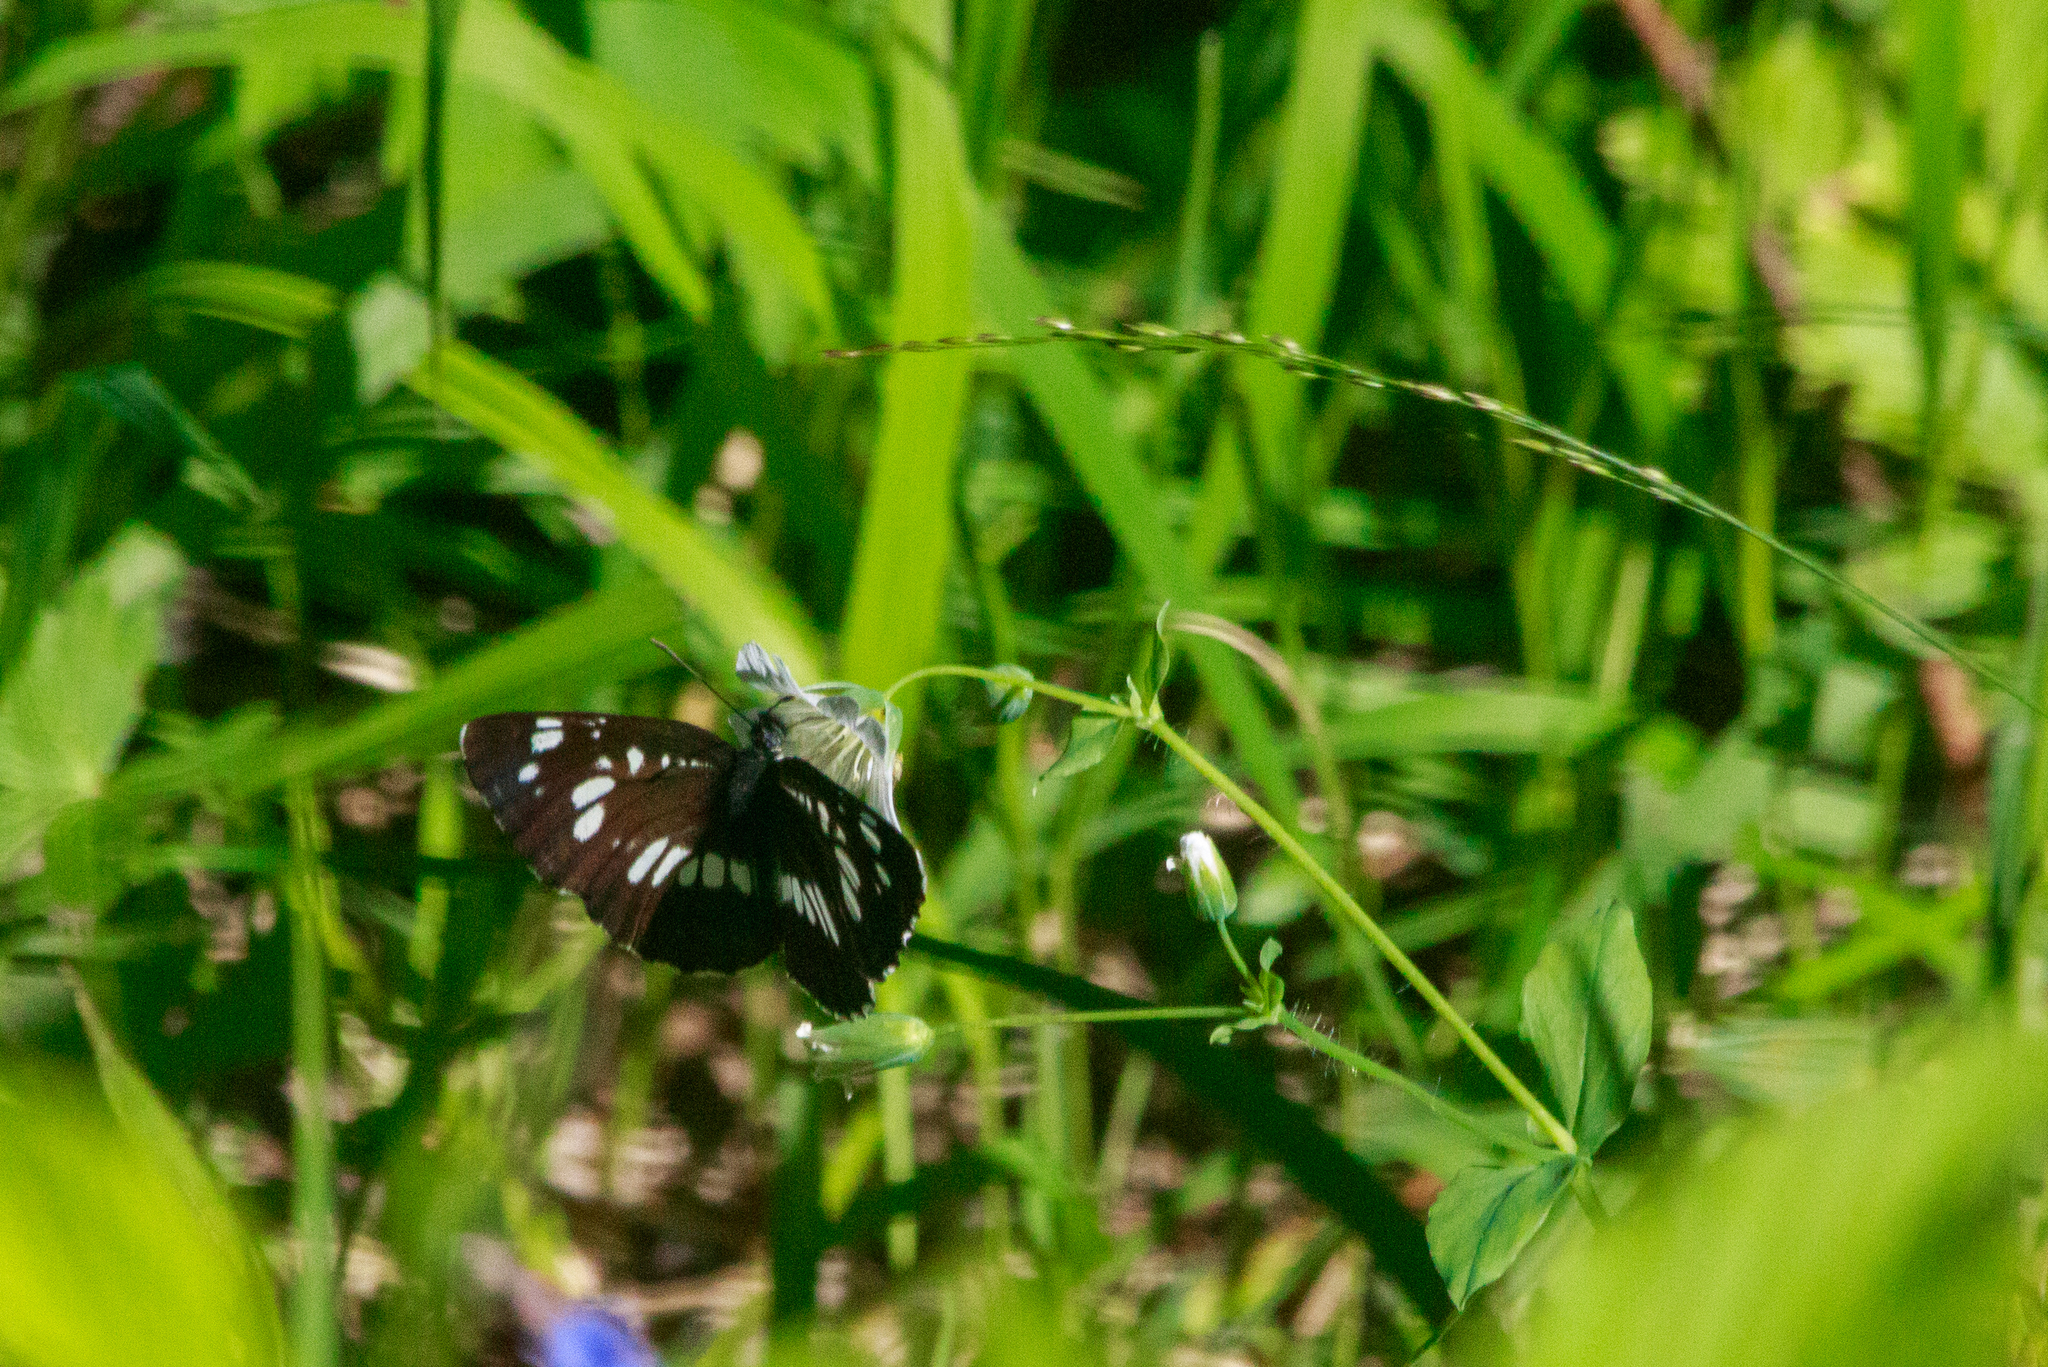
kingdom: Animalia
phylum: Arthropoda
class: Insecta
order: Lepidoptera
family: Nymphalidae
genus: Neptis
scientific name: Neptis rivularis
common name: Hungarian glider
